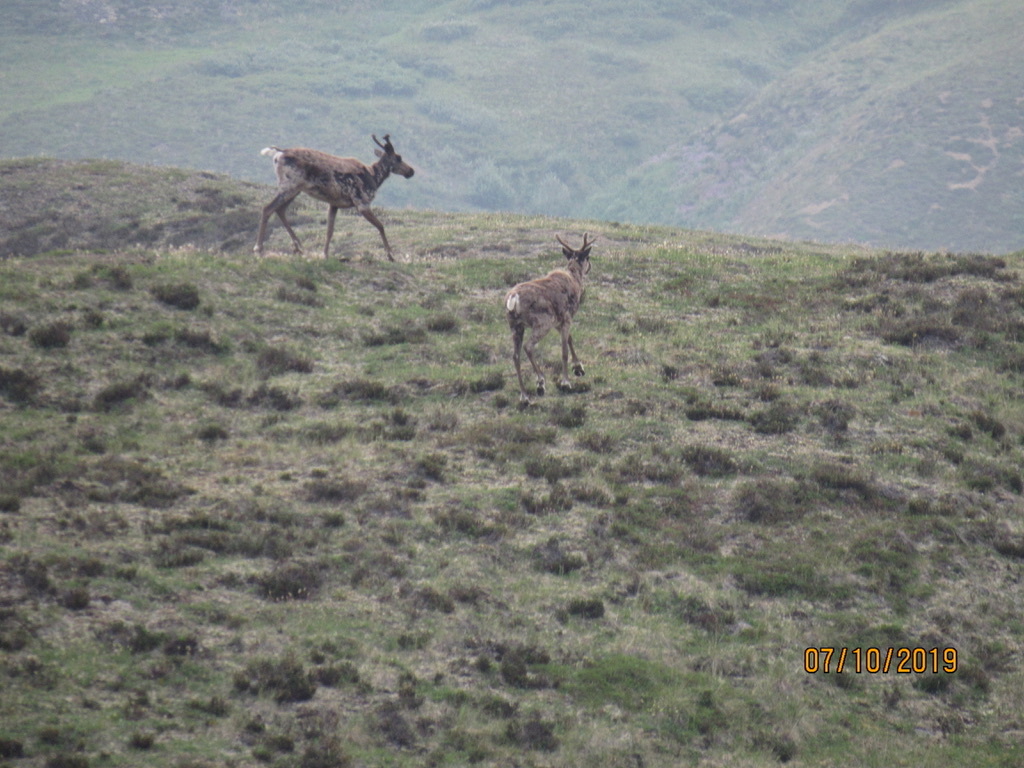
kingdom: Animalia
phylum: Chordata
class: Mammalia
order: Artiodactyla
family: Cervidae
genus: Rangifer
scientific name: Rangifer tarandus
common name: Reindeer
